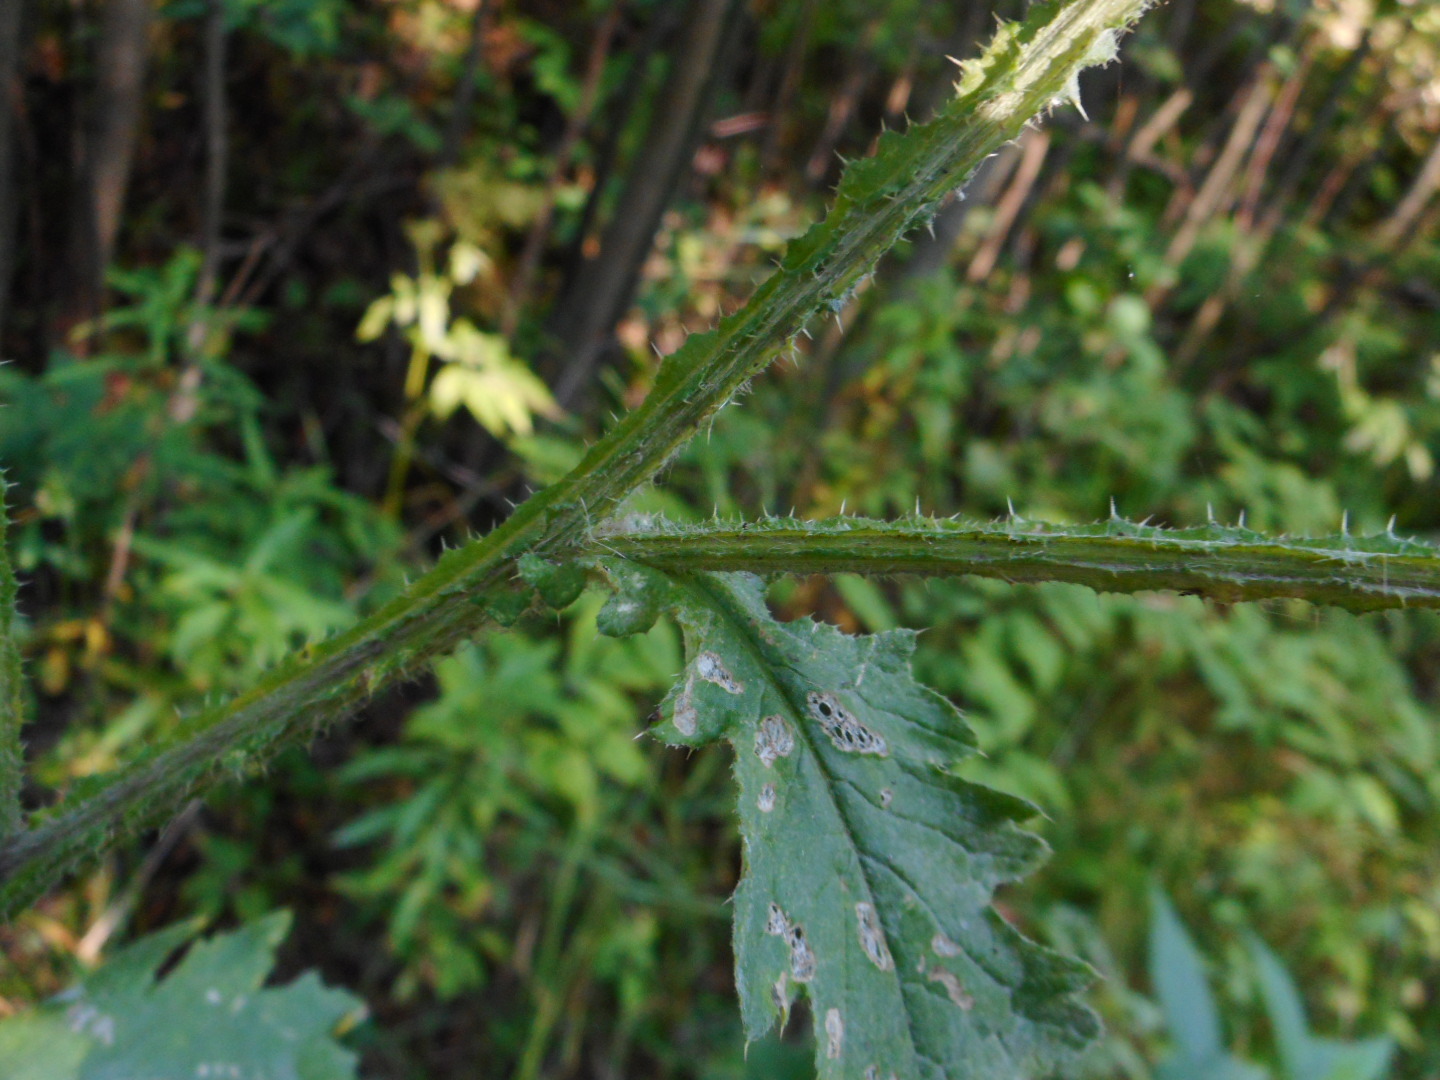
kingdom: Plantae
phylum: Tracheophyta
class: Magnoliopsida
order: Asterales
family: Asteraceae
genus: Cirsium
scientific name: Cirsium palustre
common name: Marsh thistle
